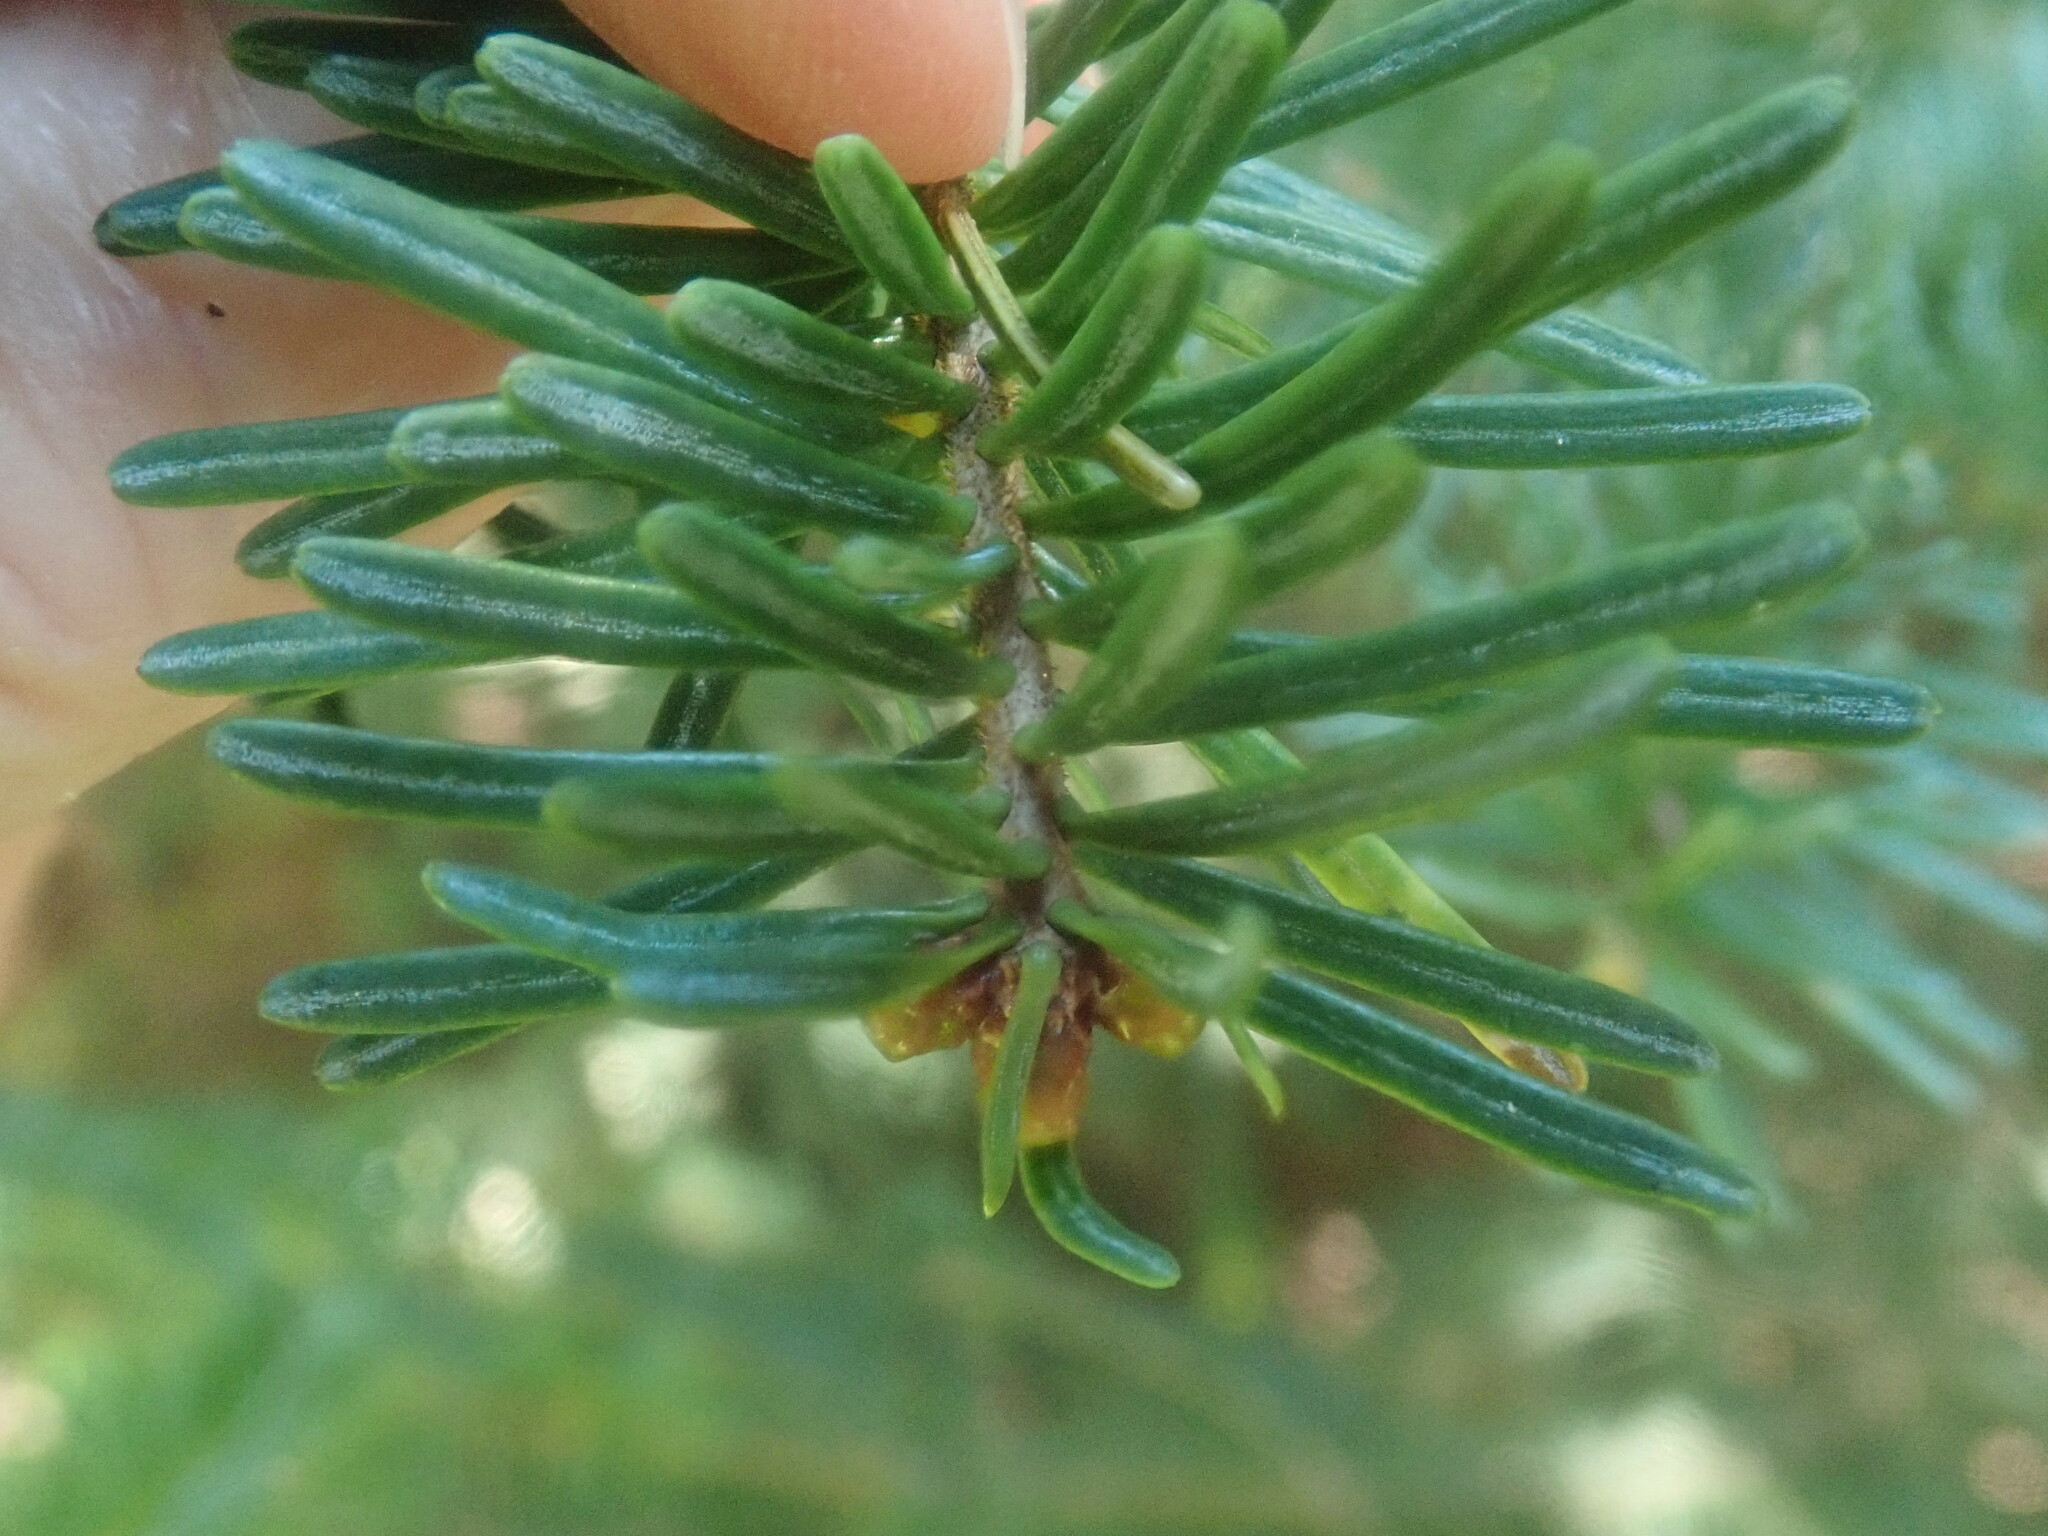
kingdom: Plantae
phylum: Tracheophyta
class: Pinopsida
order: Pinales
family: Pinaceae
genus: Abies
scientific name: Abies balsamea
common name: Balsam fir
